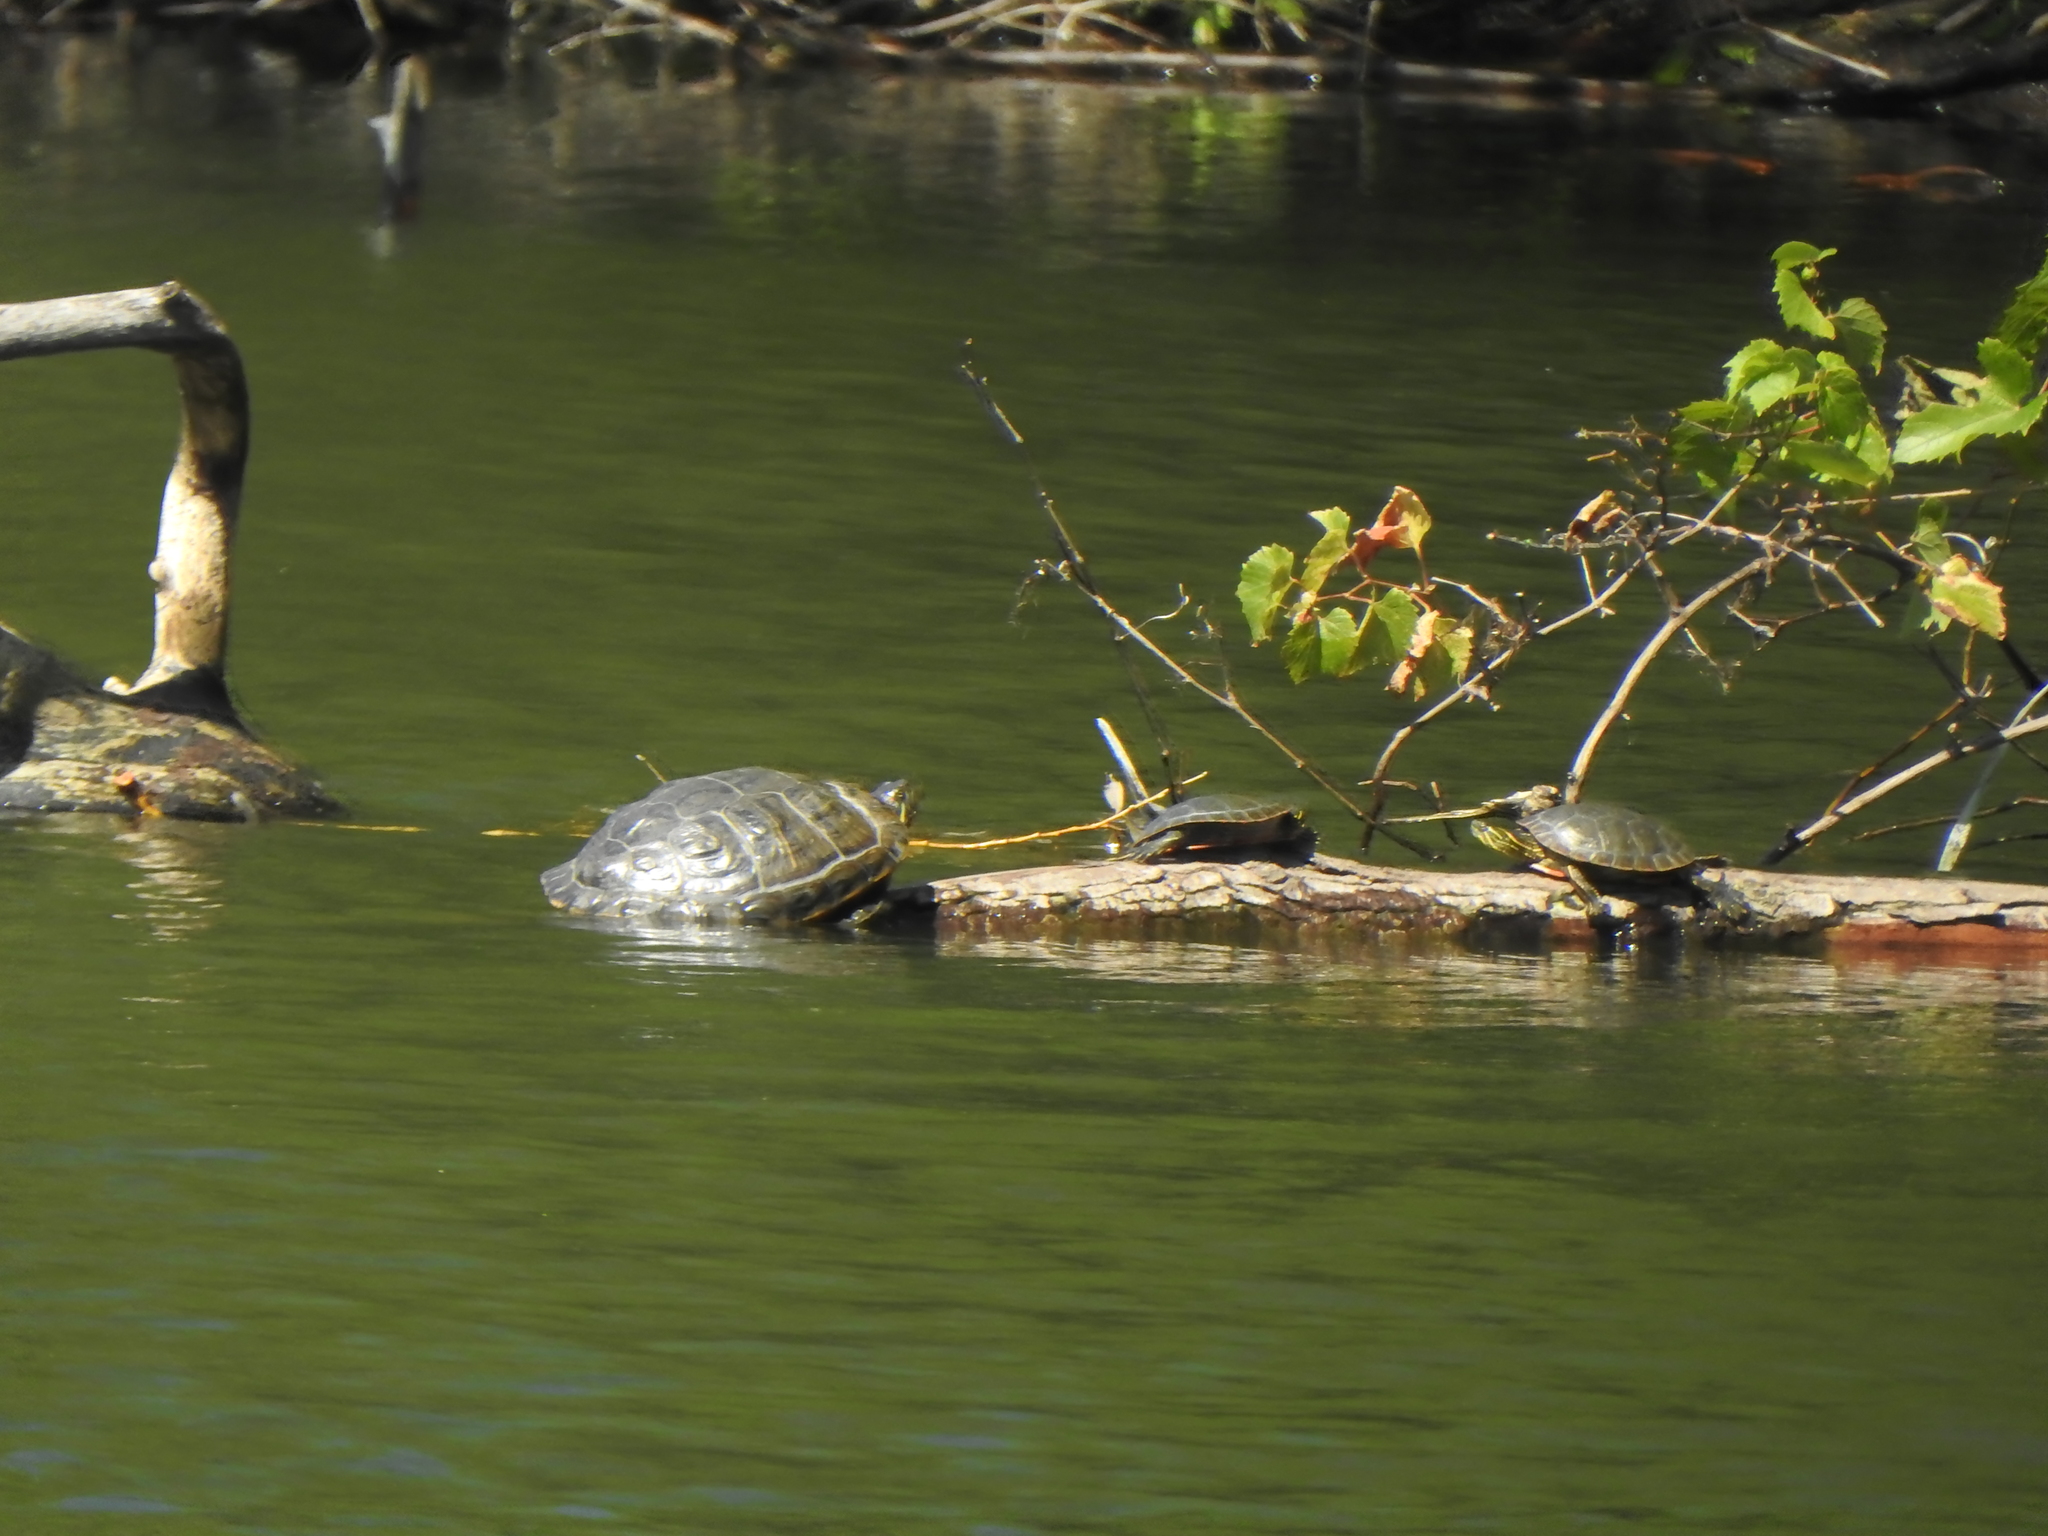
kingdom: Animalia
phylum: Chordata
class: Testudines
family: Emydidae
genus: Trachemys
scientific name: Trachemys scripta
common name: Slider
